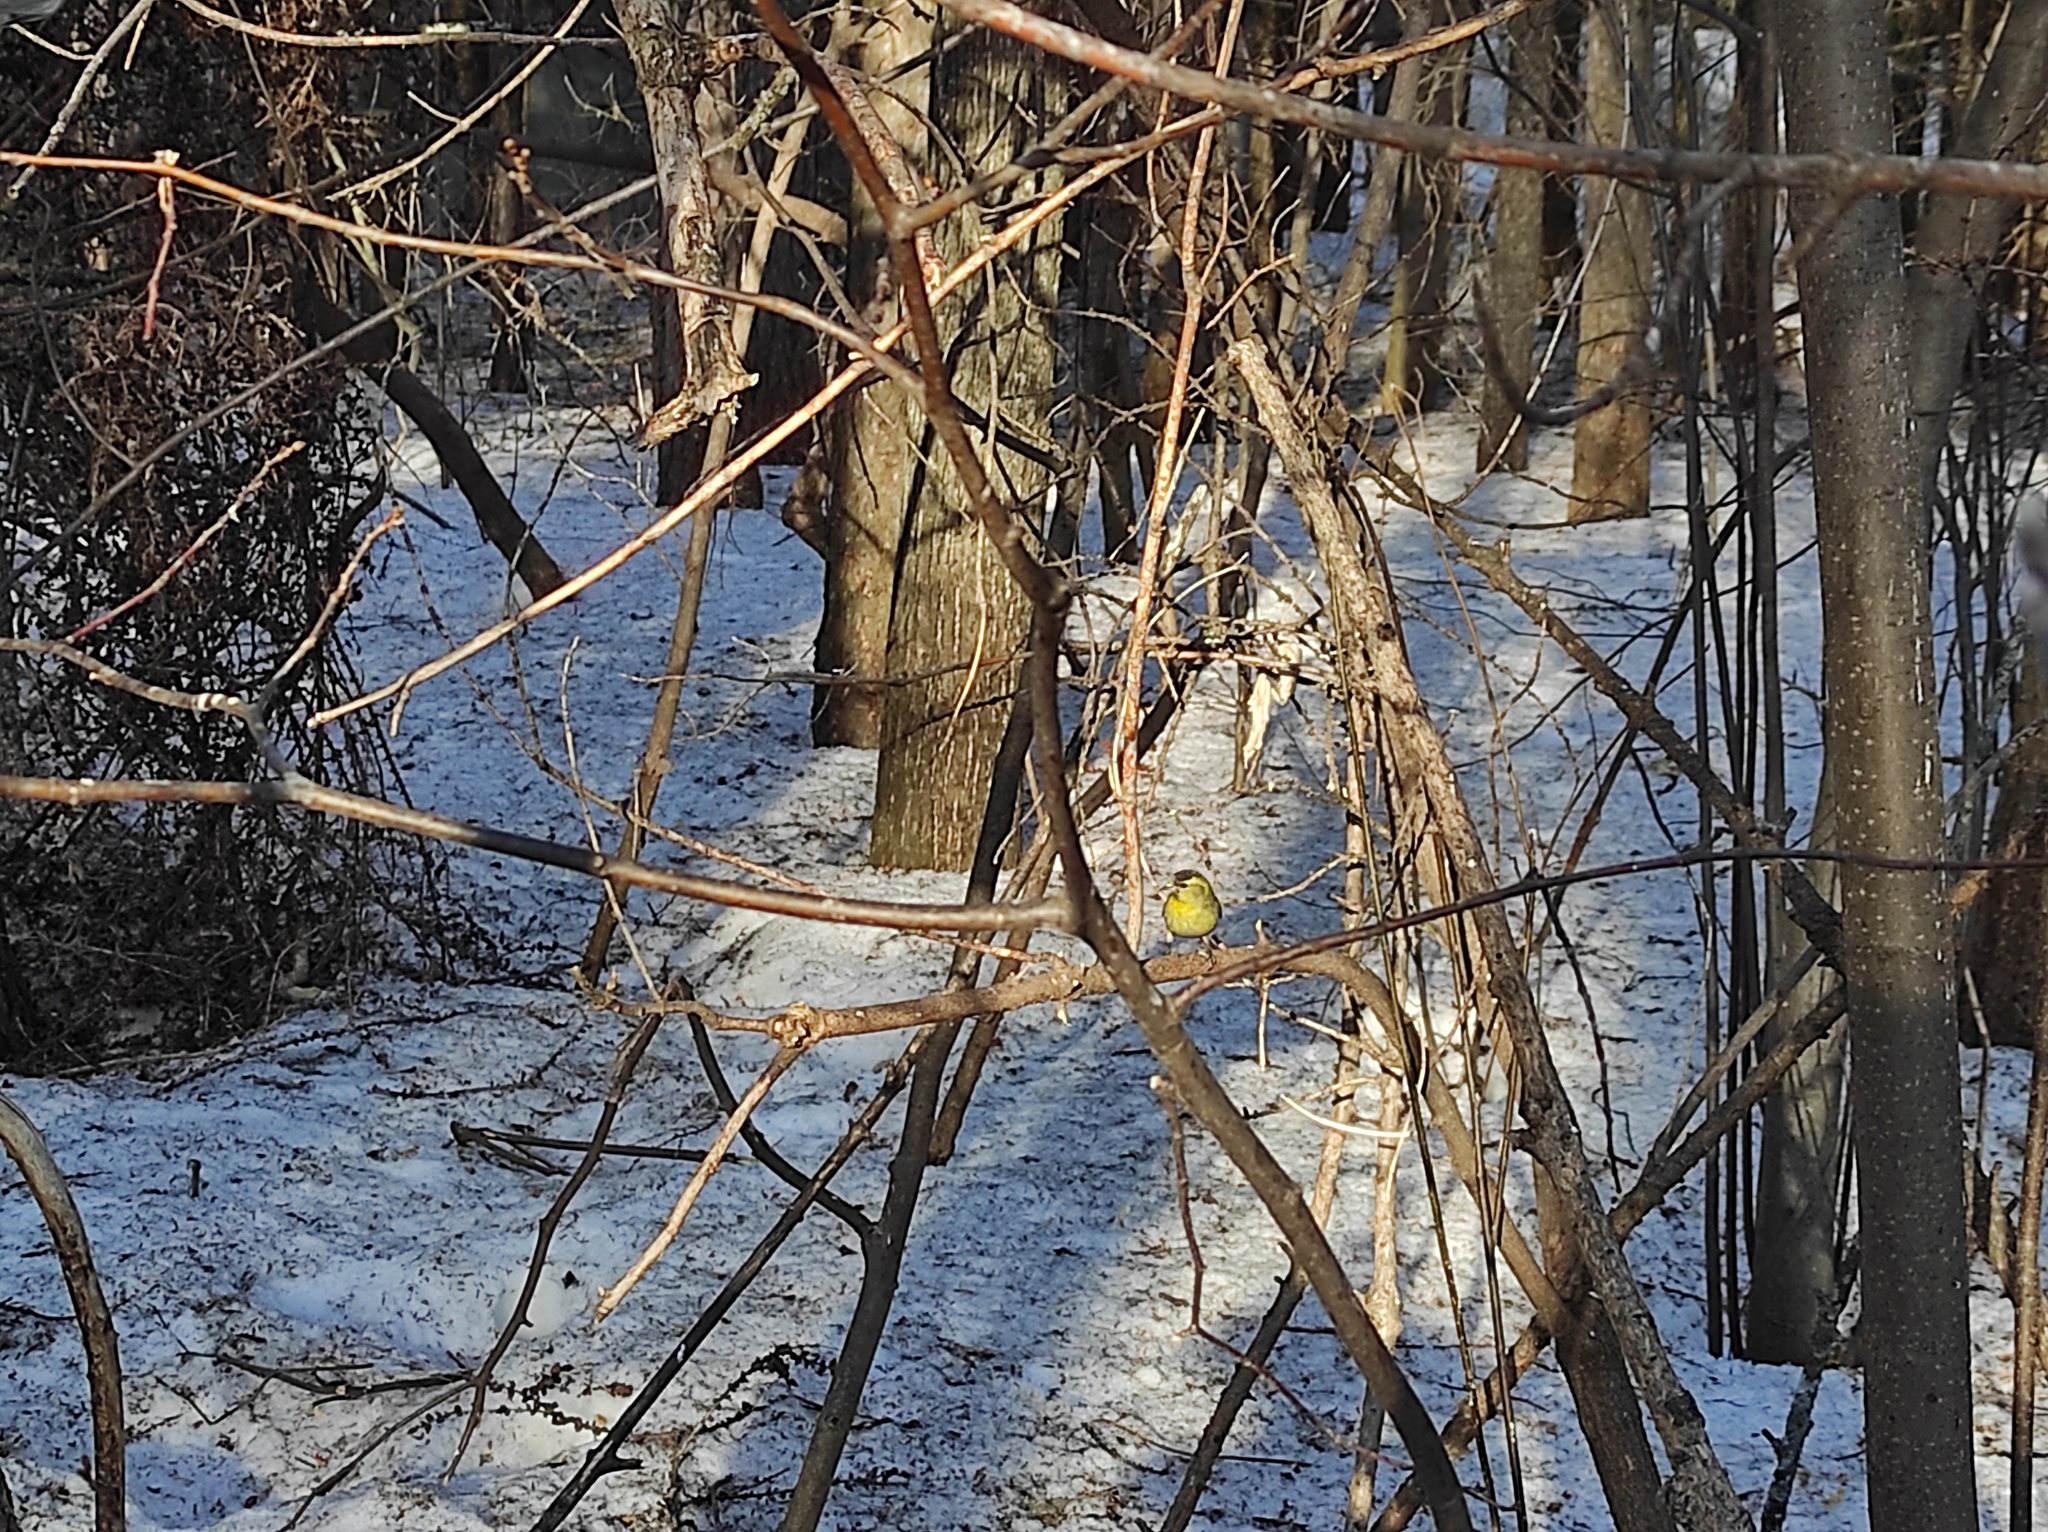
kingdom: Animalia
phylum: Chordata
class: Aves
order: Passeriformes
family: Fringillidae
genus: Spinus
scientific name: Spinus spinus
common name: Eurasian siskin
